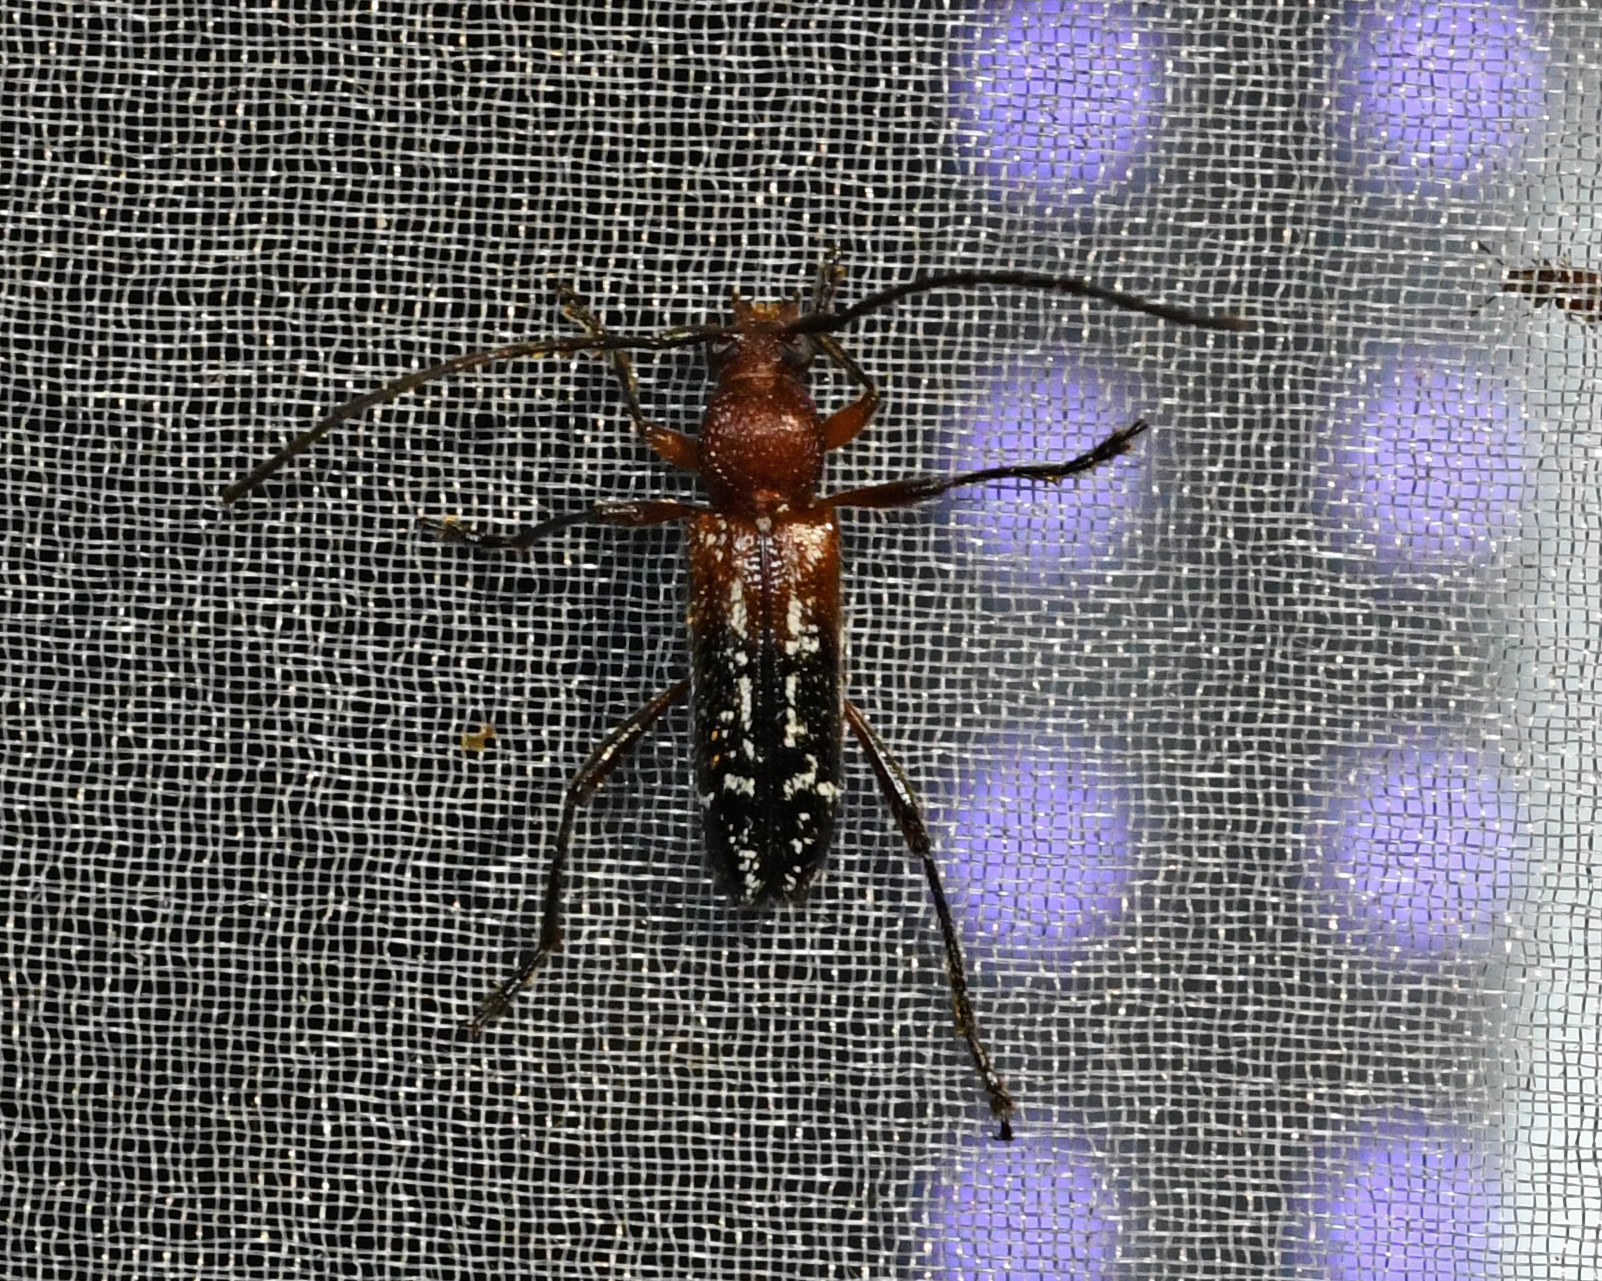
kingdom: Animalia
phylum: Arthropoda
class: Insecta
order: Coleoptera
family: Cerambycidae
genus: Trichrous
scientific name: Trichrous irroratus
